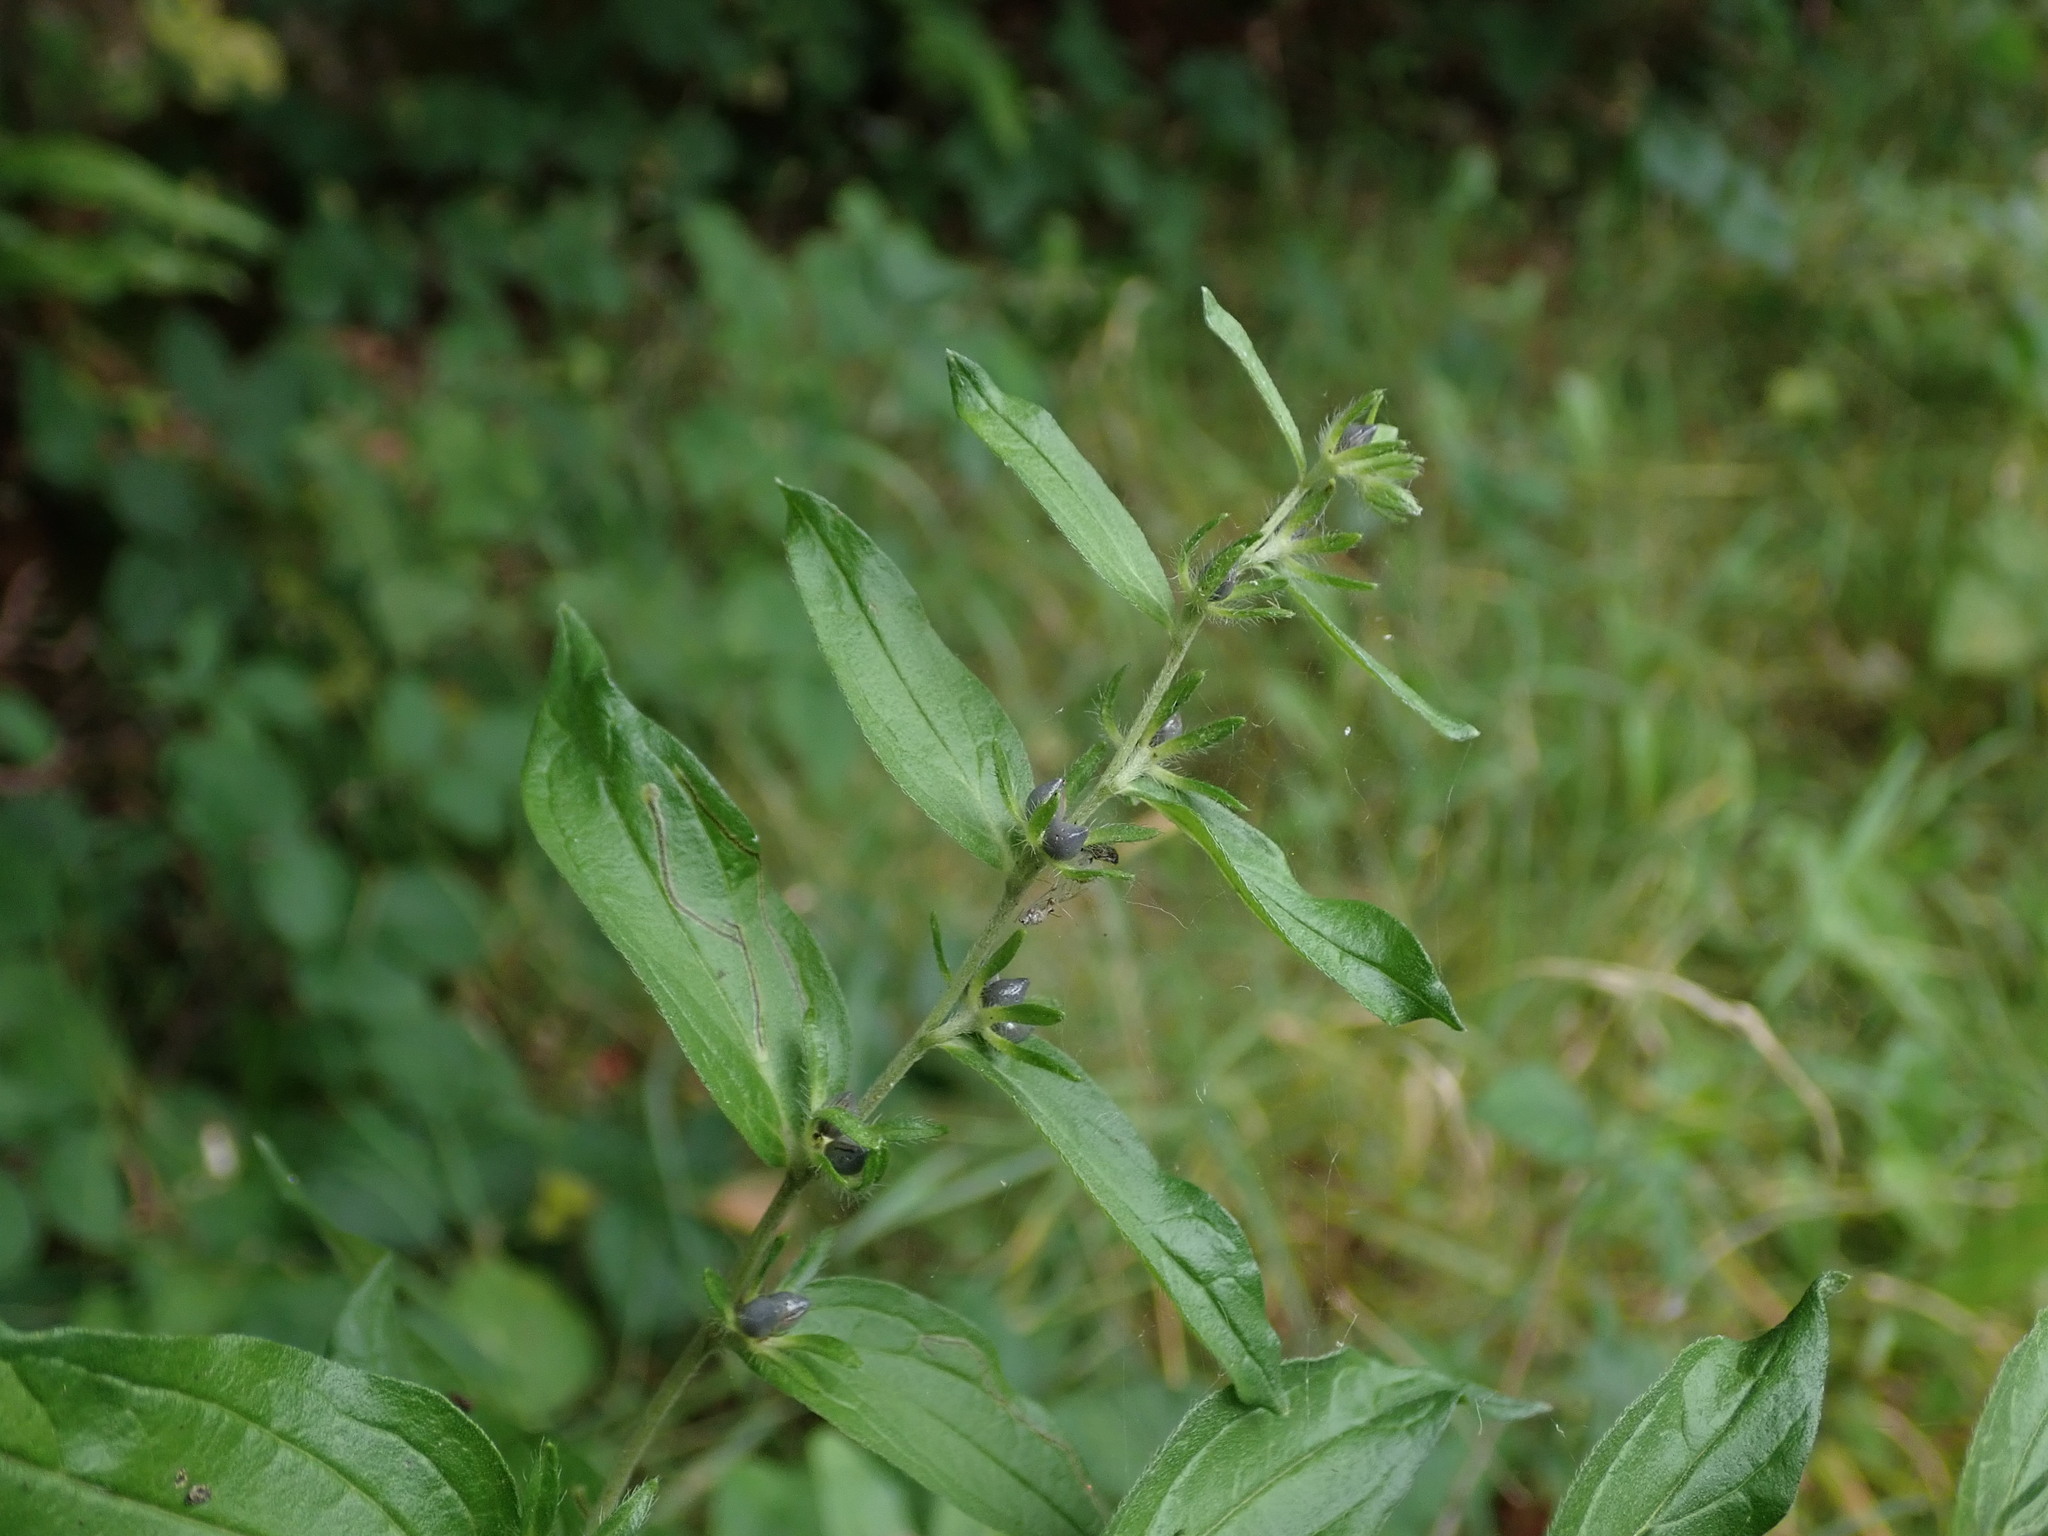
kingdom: Plantae
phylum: Tracheophyta
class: Magnoliopsida
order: Boraginales
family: Boraginaceae
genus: Lithospermum
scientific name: Lithospermum officinale
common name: Common gromwell
